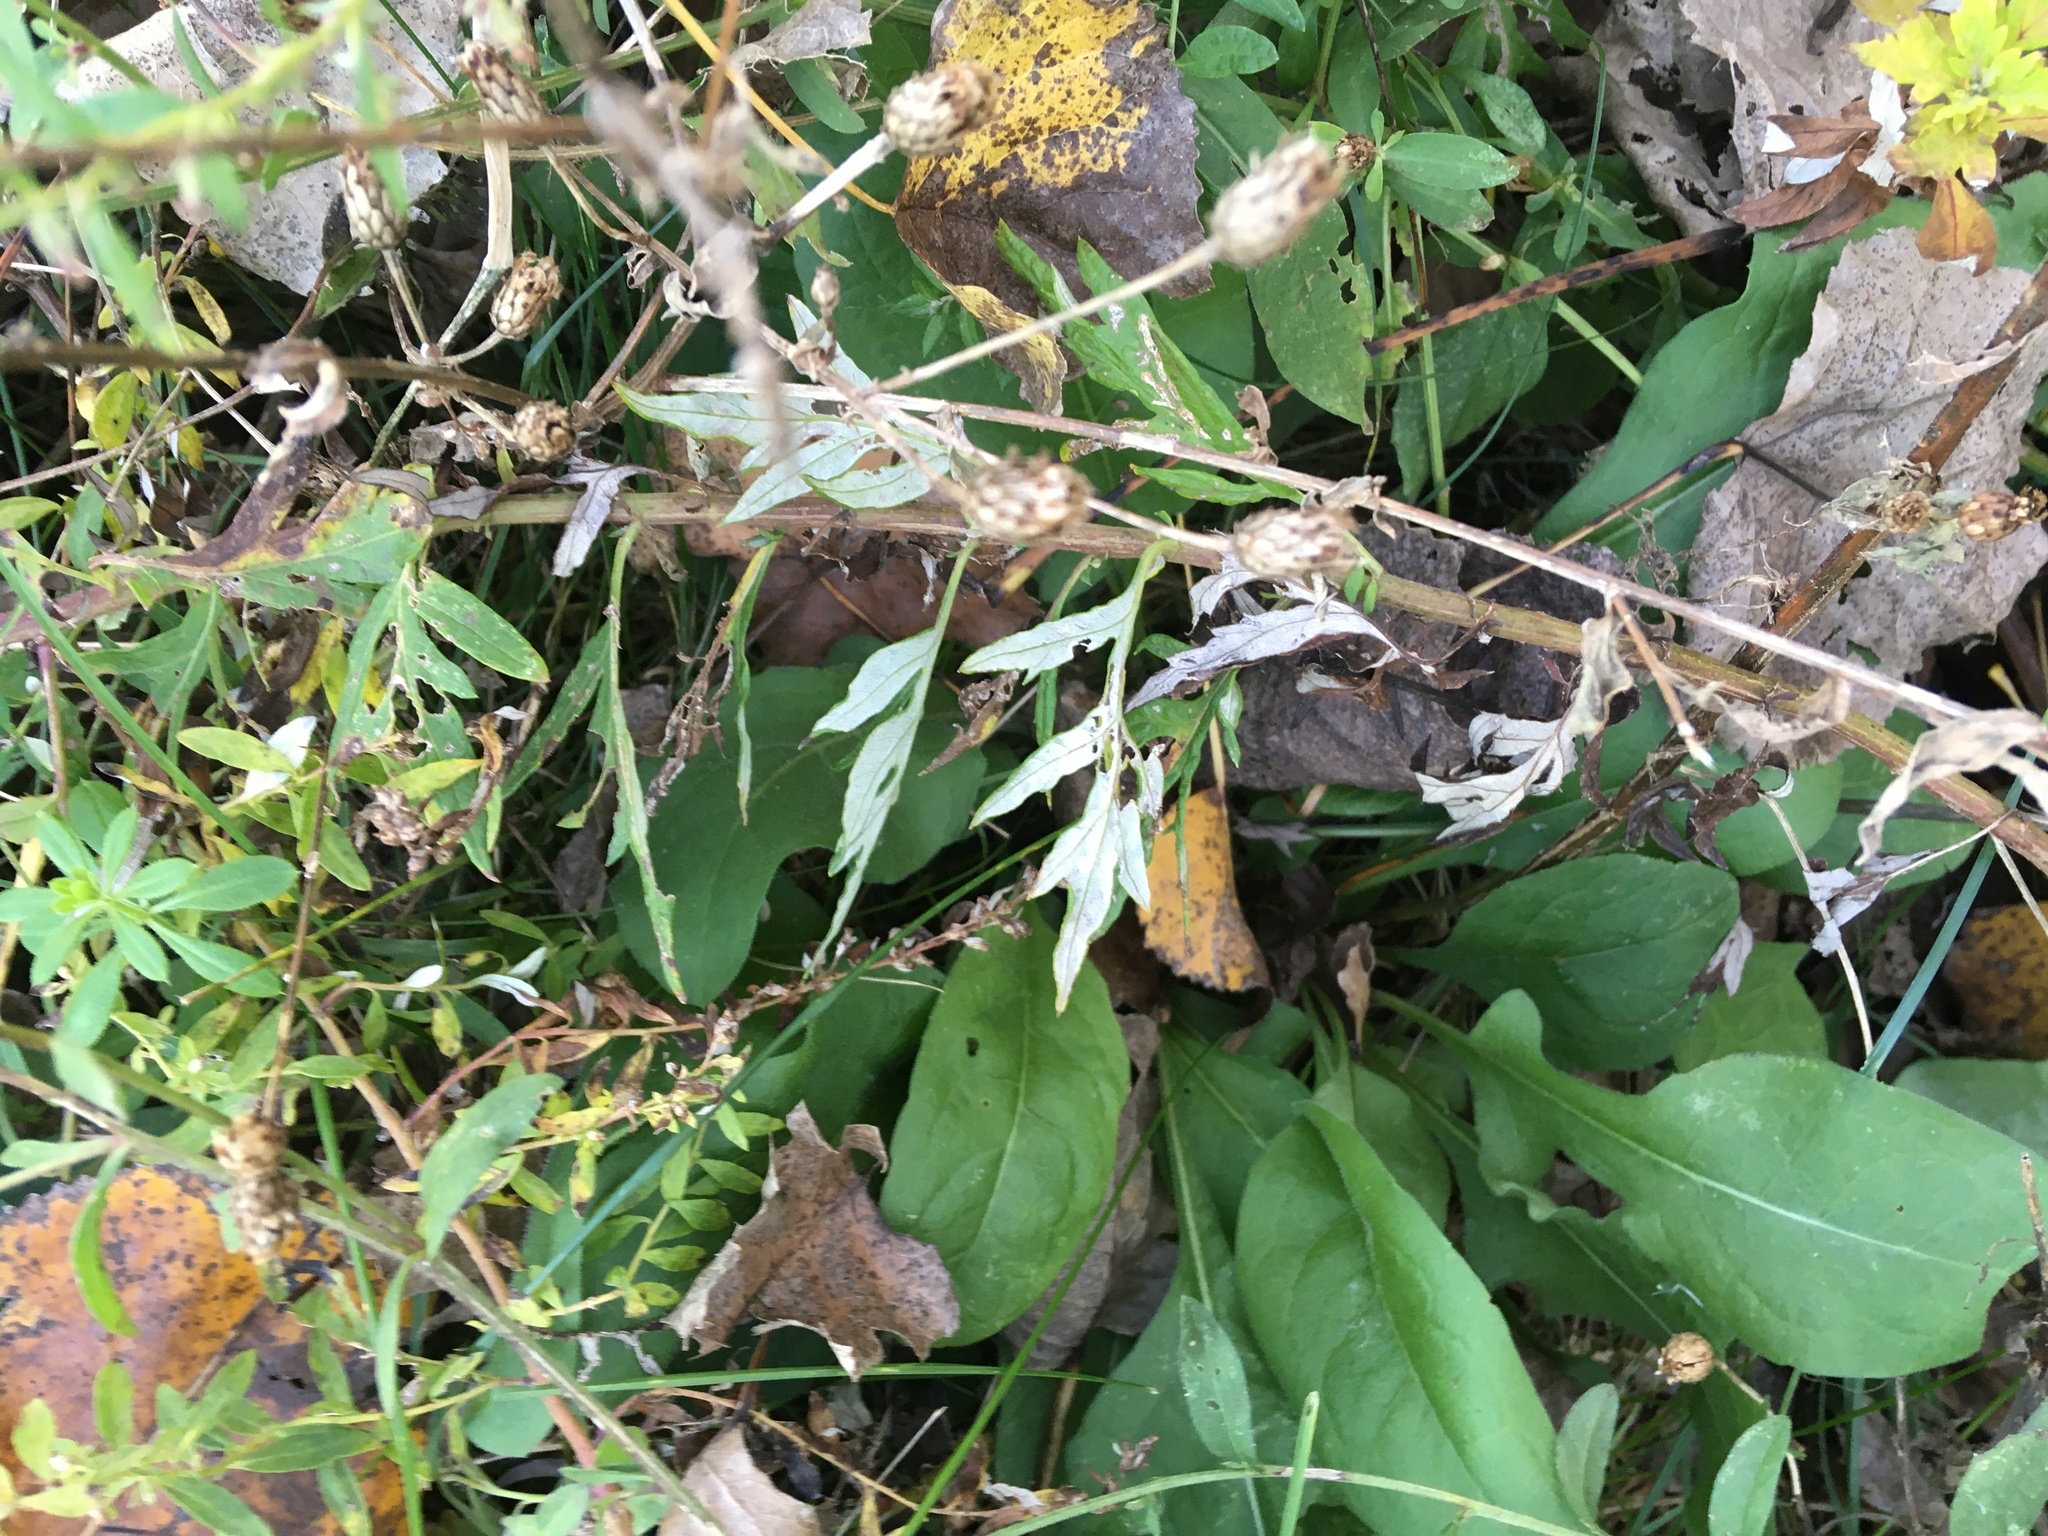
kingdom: Plantae
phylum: Tracheophyta
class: Magnoliopsida
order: Asterales
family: Asteraceae
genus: Artemisia
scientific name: Artemisia vulgaris
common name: Mugwort
